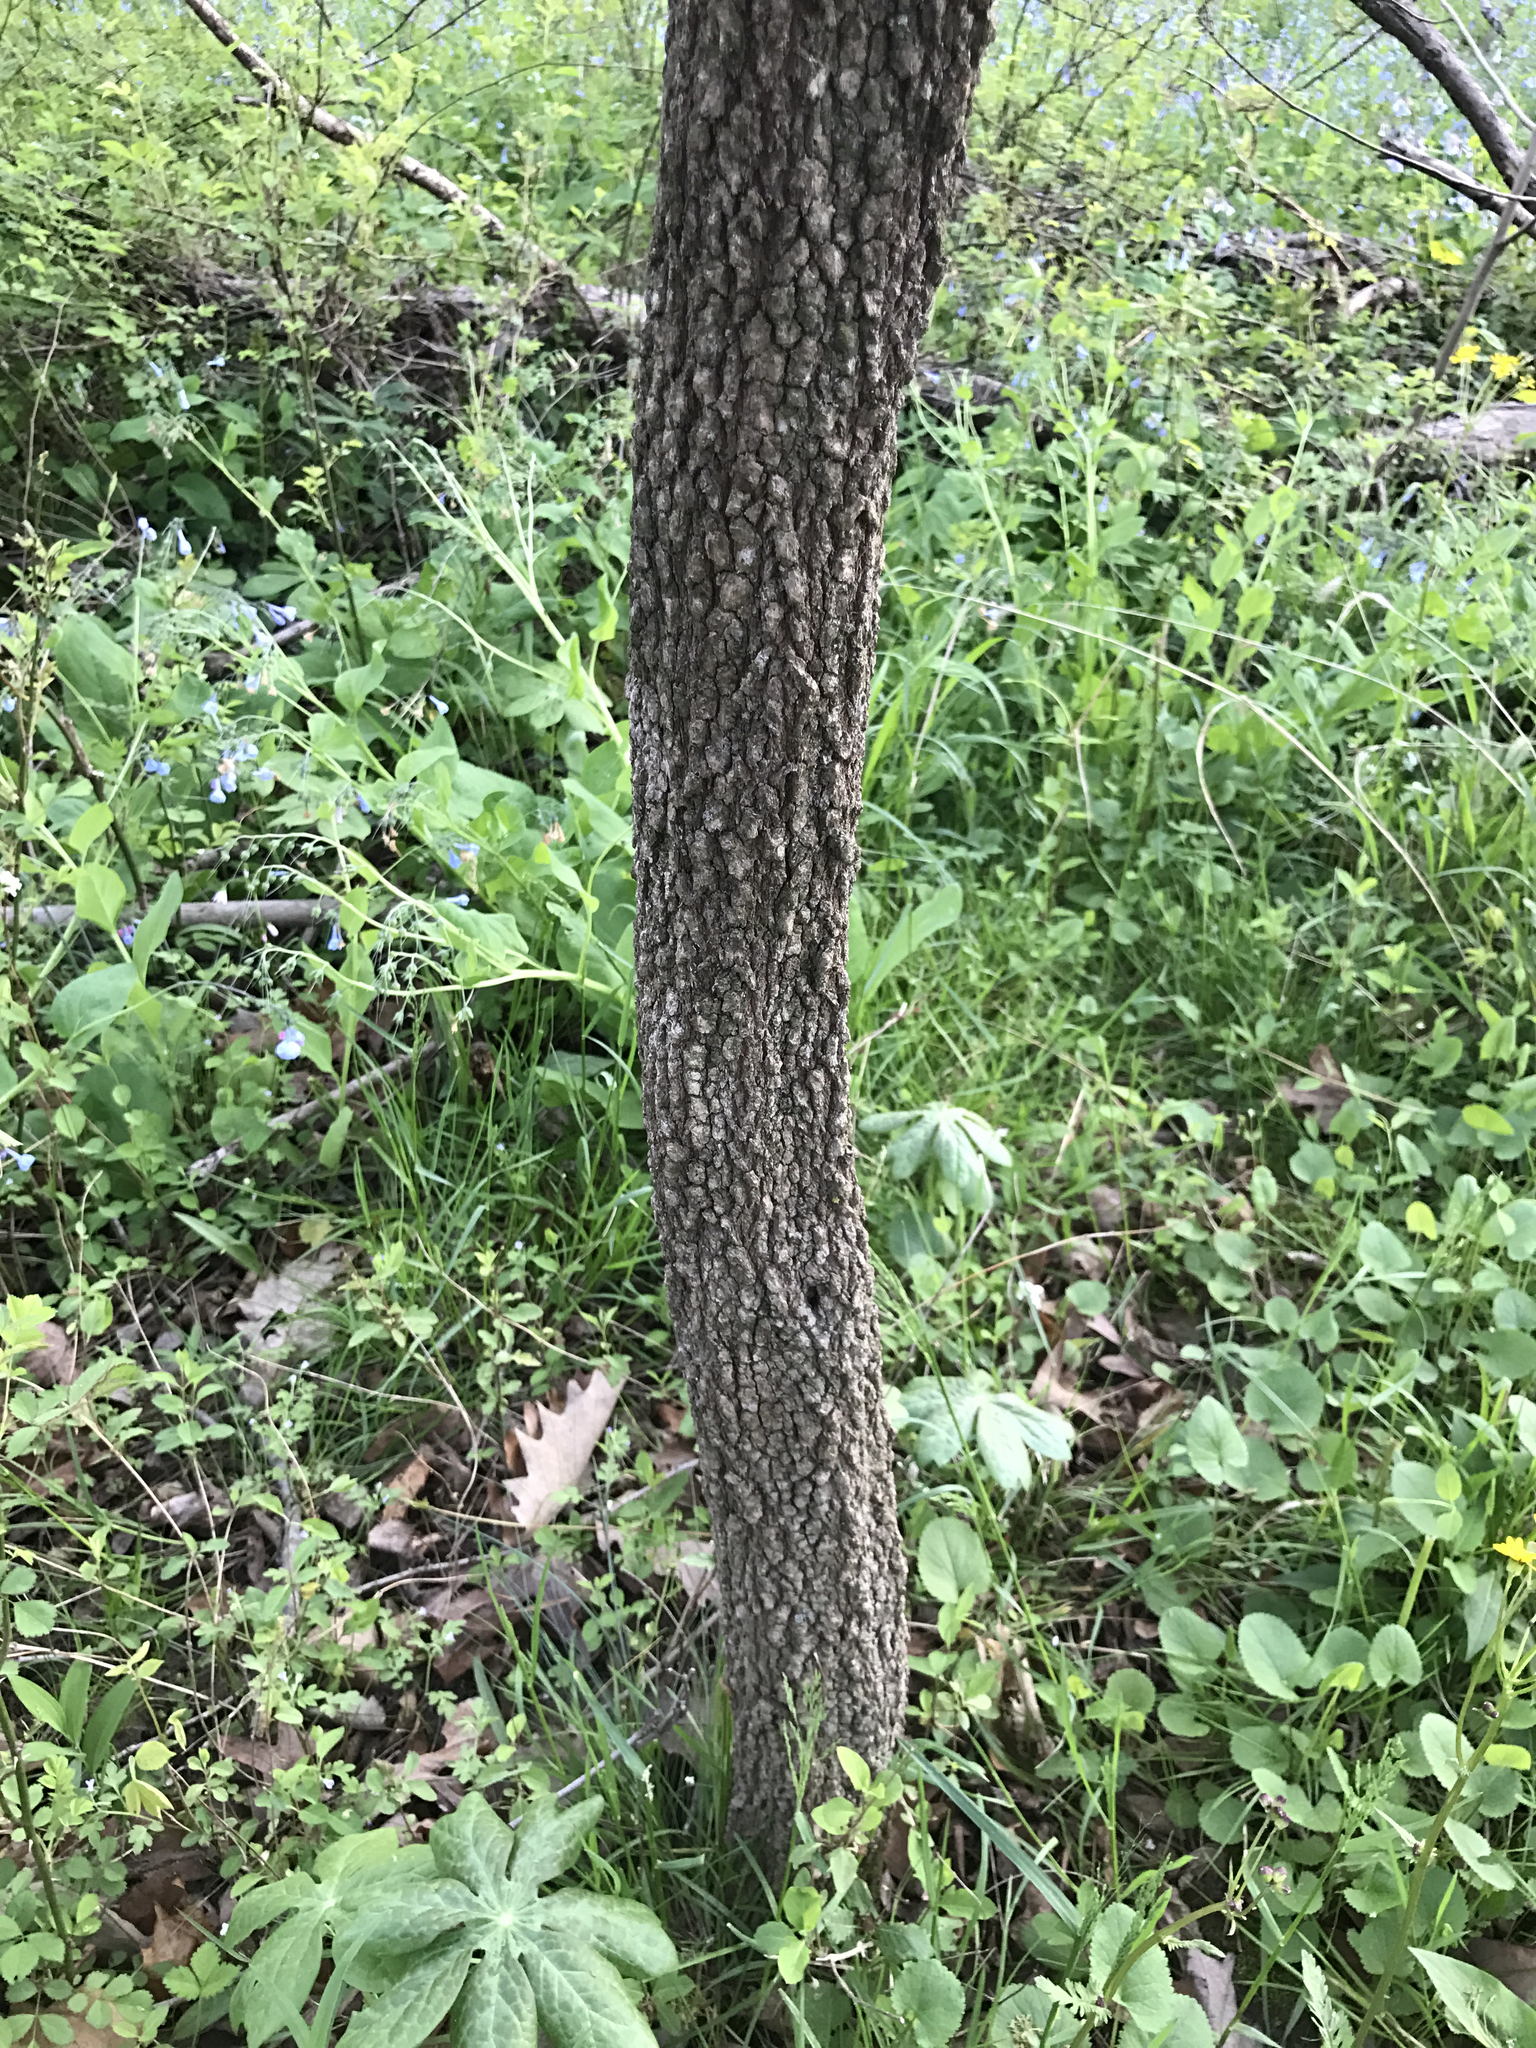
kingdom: Plantae
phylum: Tracheophyta
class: Magnoliopsida
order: Dipsacales
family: Viburnaceae
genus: Viburnum
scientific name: Viburnum prunifolium
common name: Black haw
